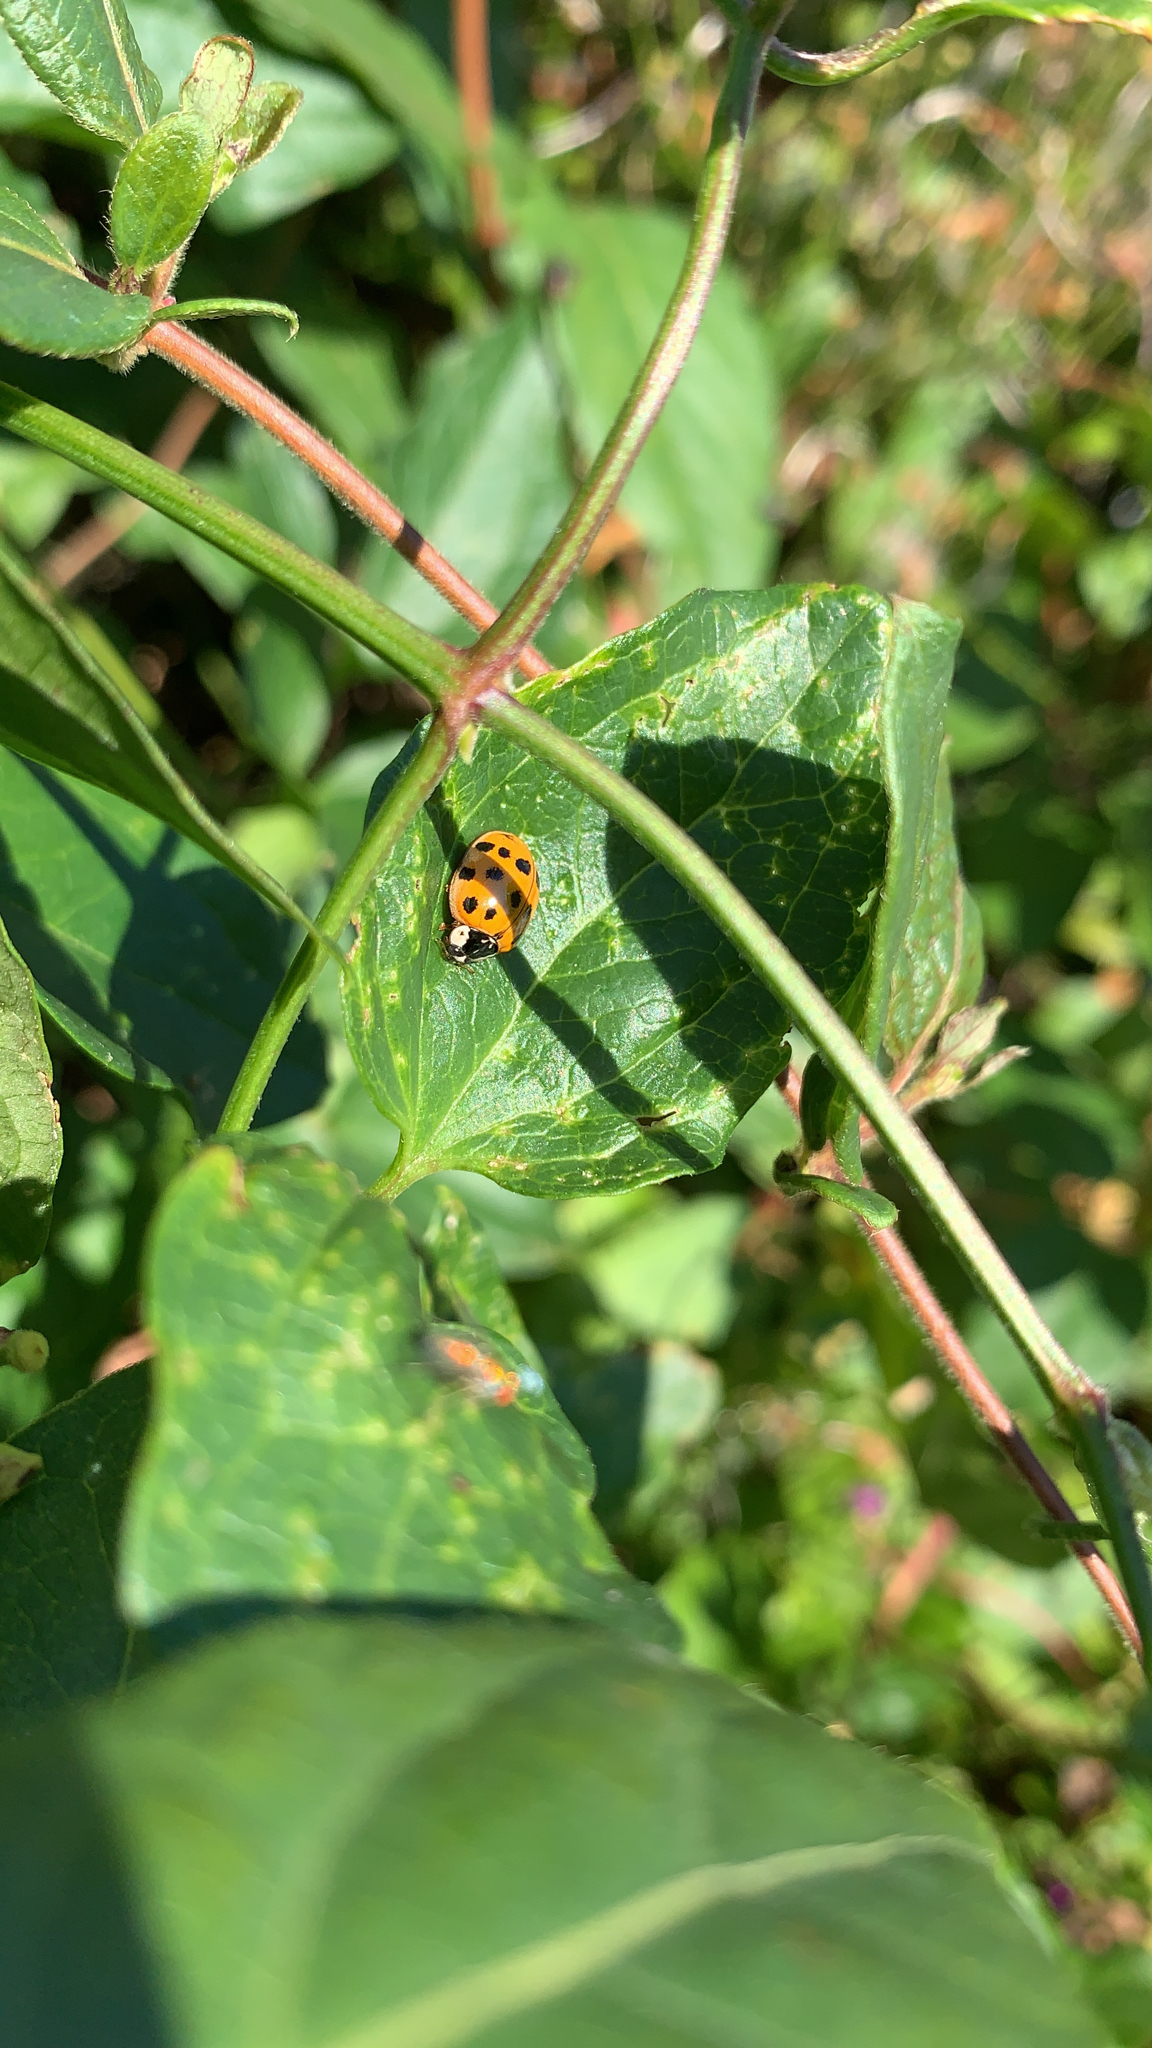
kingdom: Animalia
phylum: Arthropoda
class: Insecta
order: Coleoptera
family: Coccinellidae
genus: Harmonia
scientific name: Harmonia axyridis
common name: Harlequin ladybird
